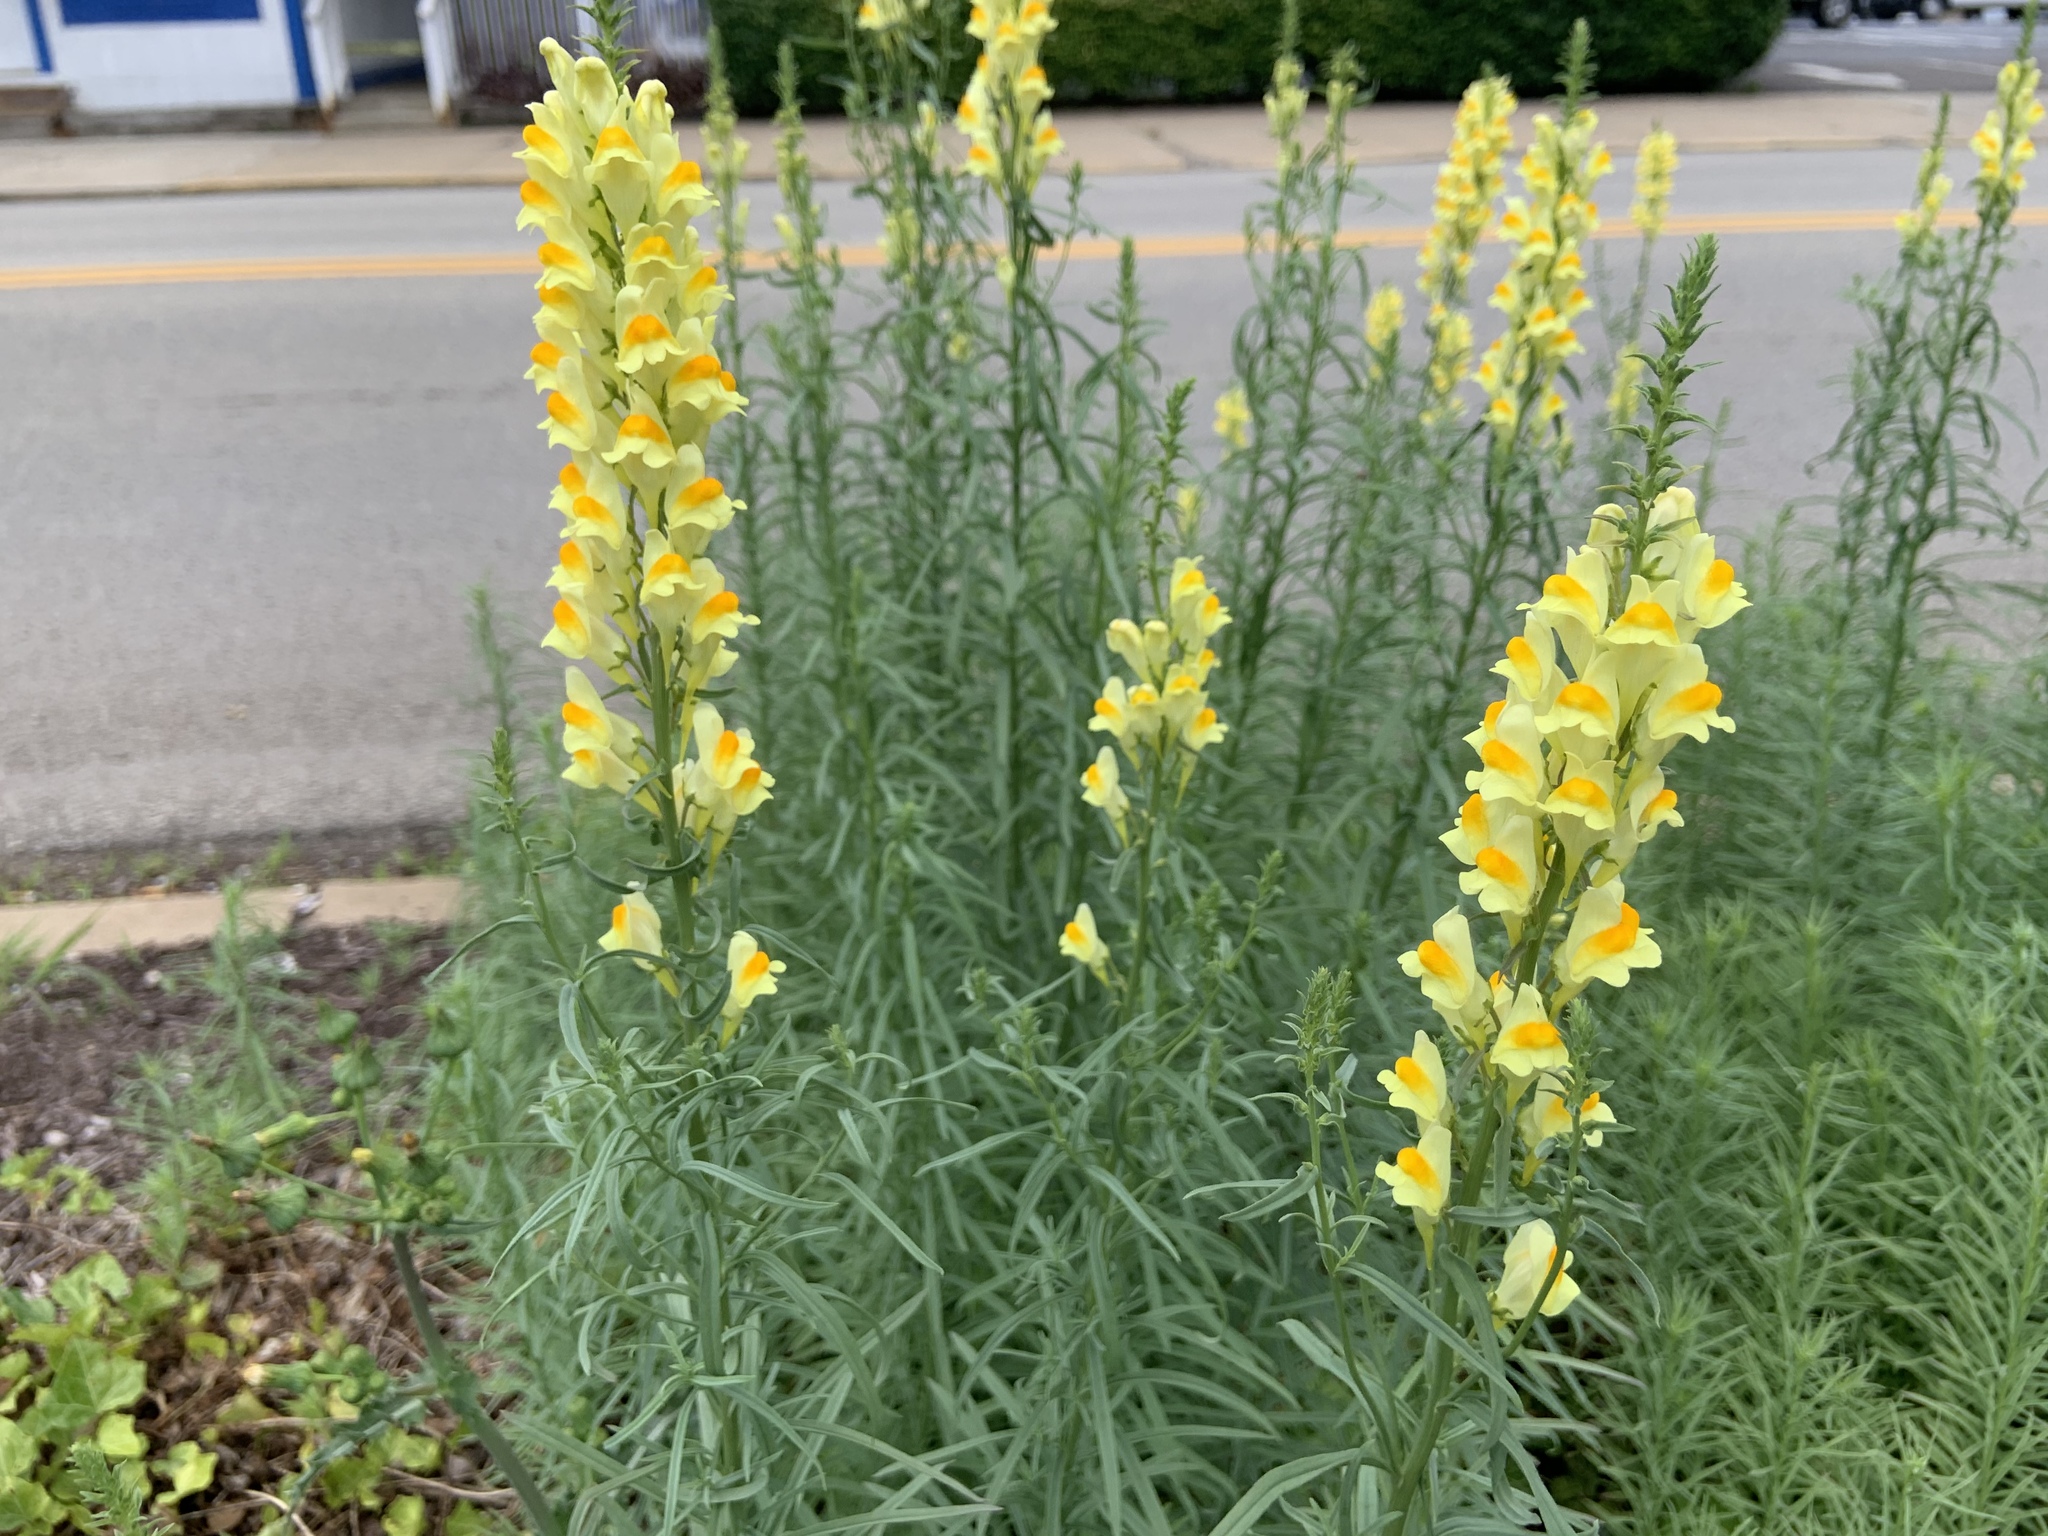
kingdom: Plantae
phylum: Tracheophyta
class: Magnoliopsida
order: Lamiales
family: Plantaginaceae
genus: Linaria
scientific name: Linaria vulgaris
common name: Butter and eggs
